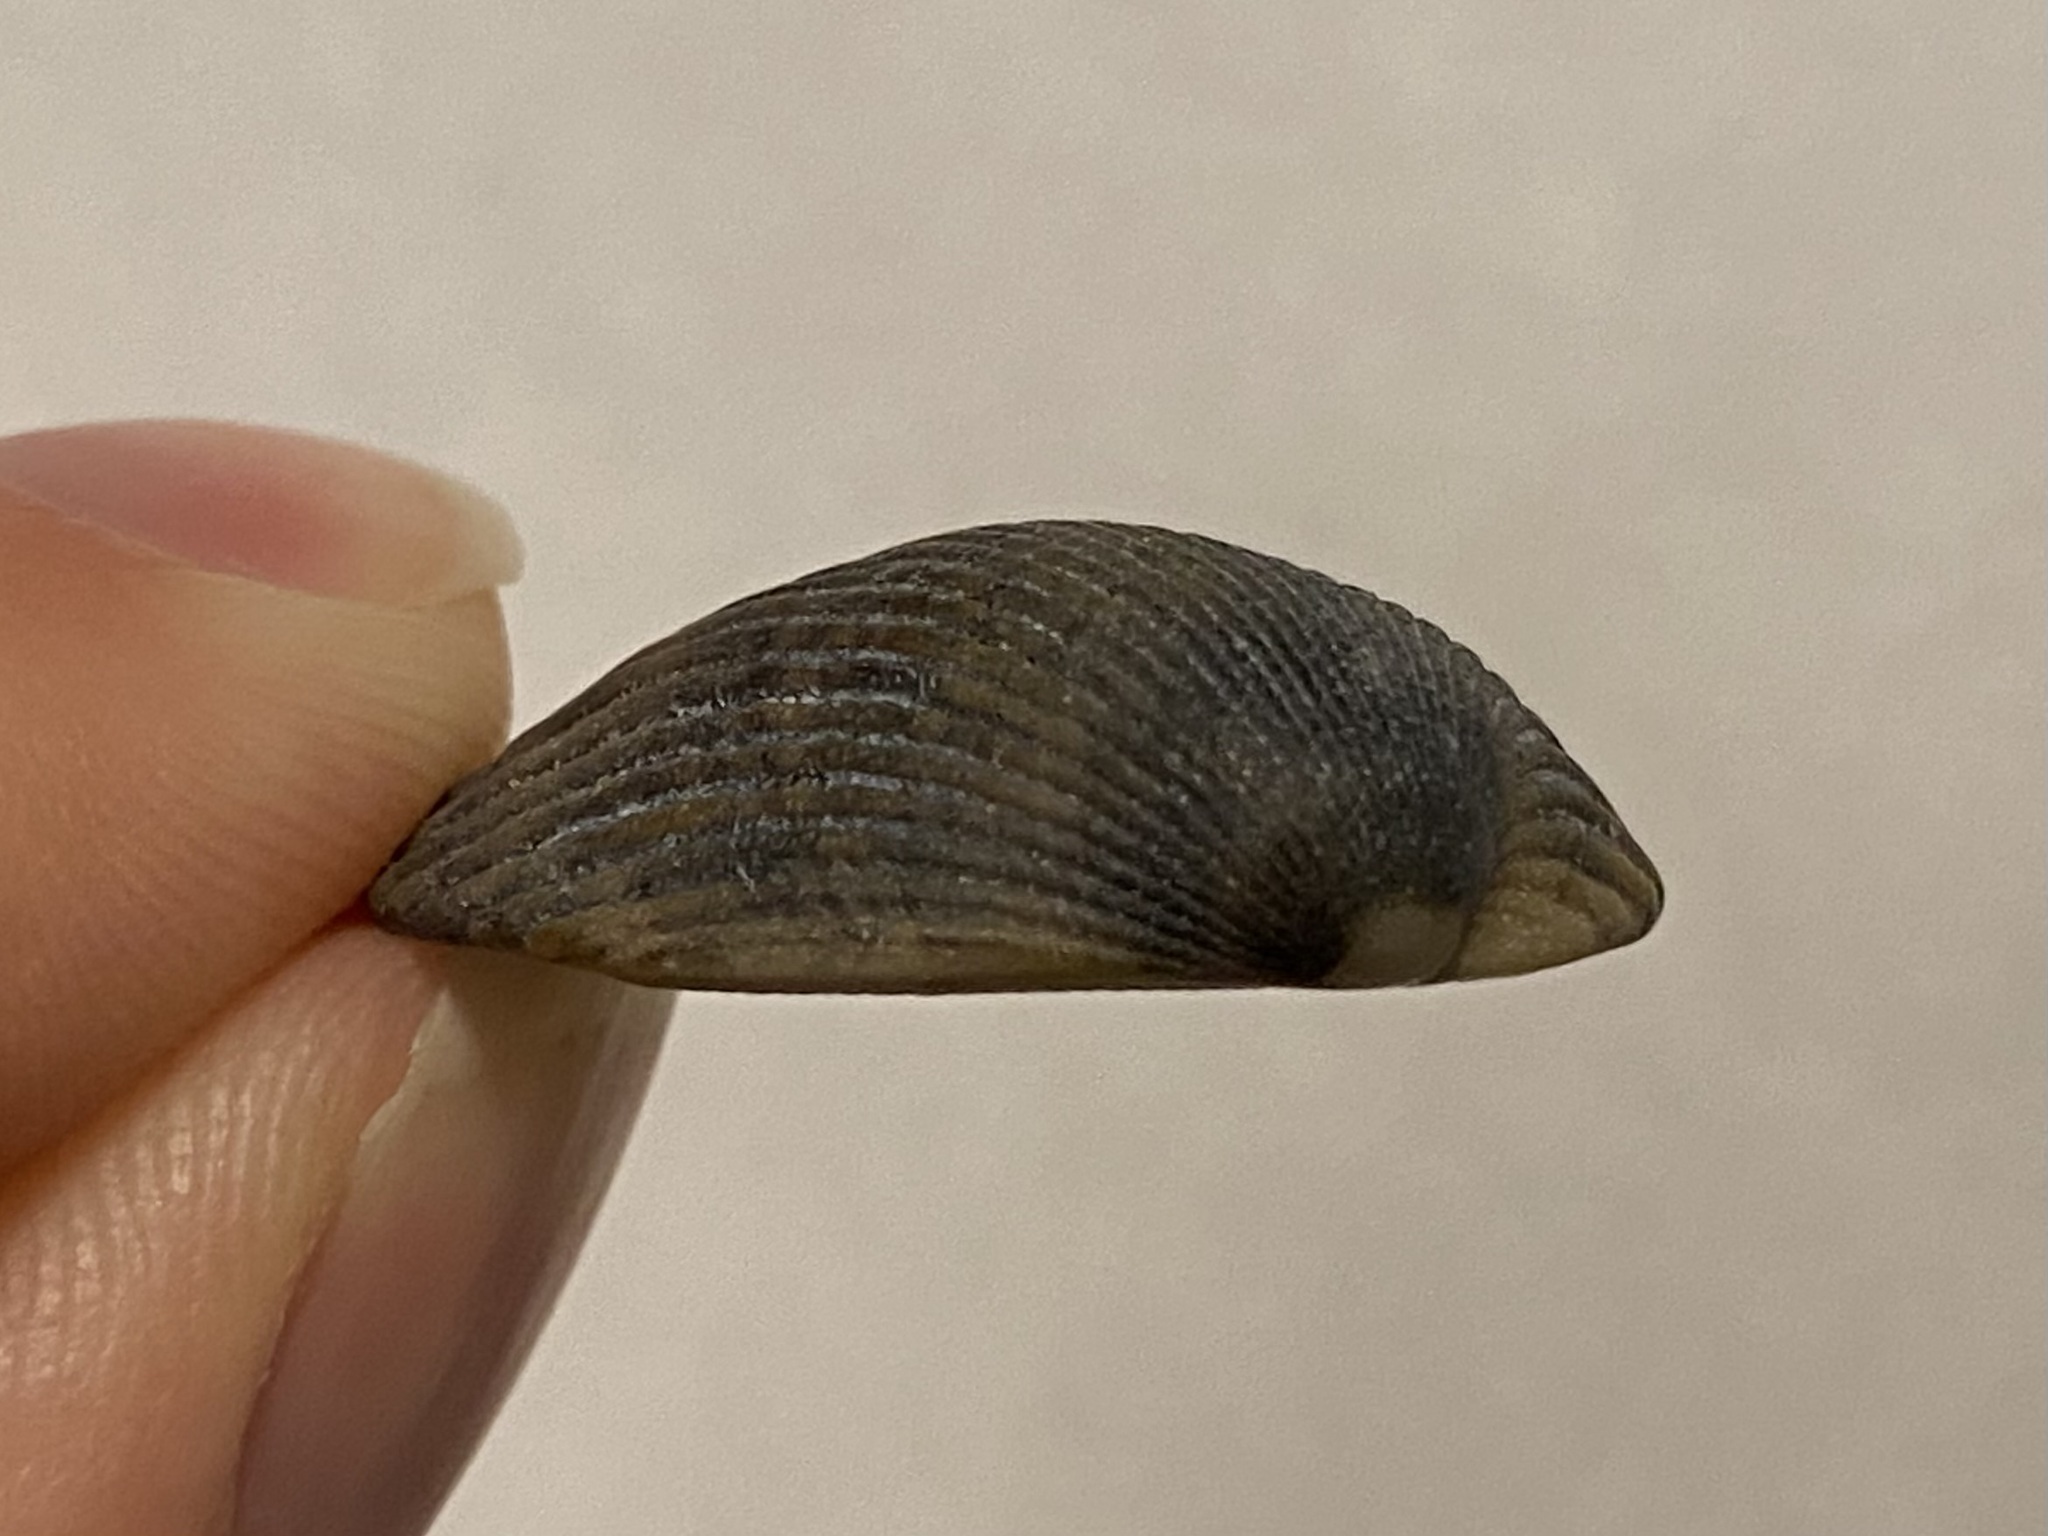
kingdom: Animalia
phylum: Mollusca
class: Bivalvia
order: Arcida
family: Arcidae
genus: Lunarca
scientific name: Lunarca ovalis
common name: Blood ark
